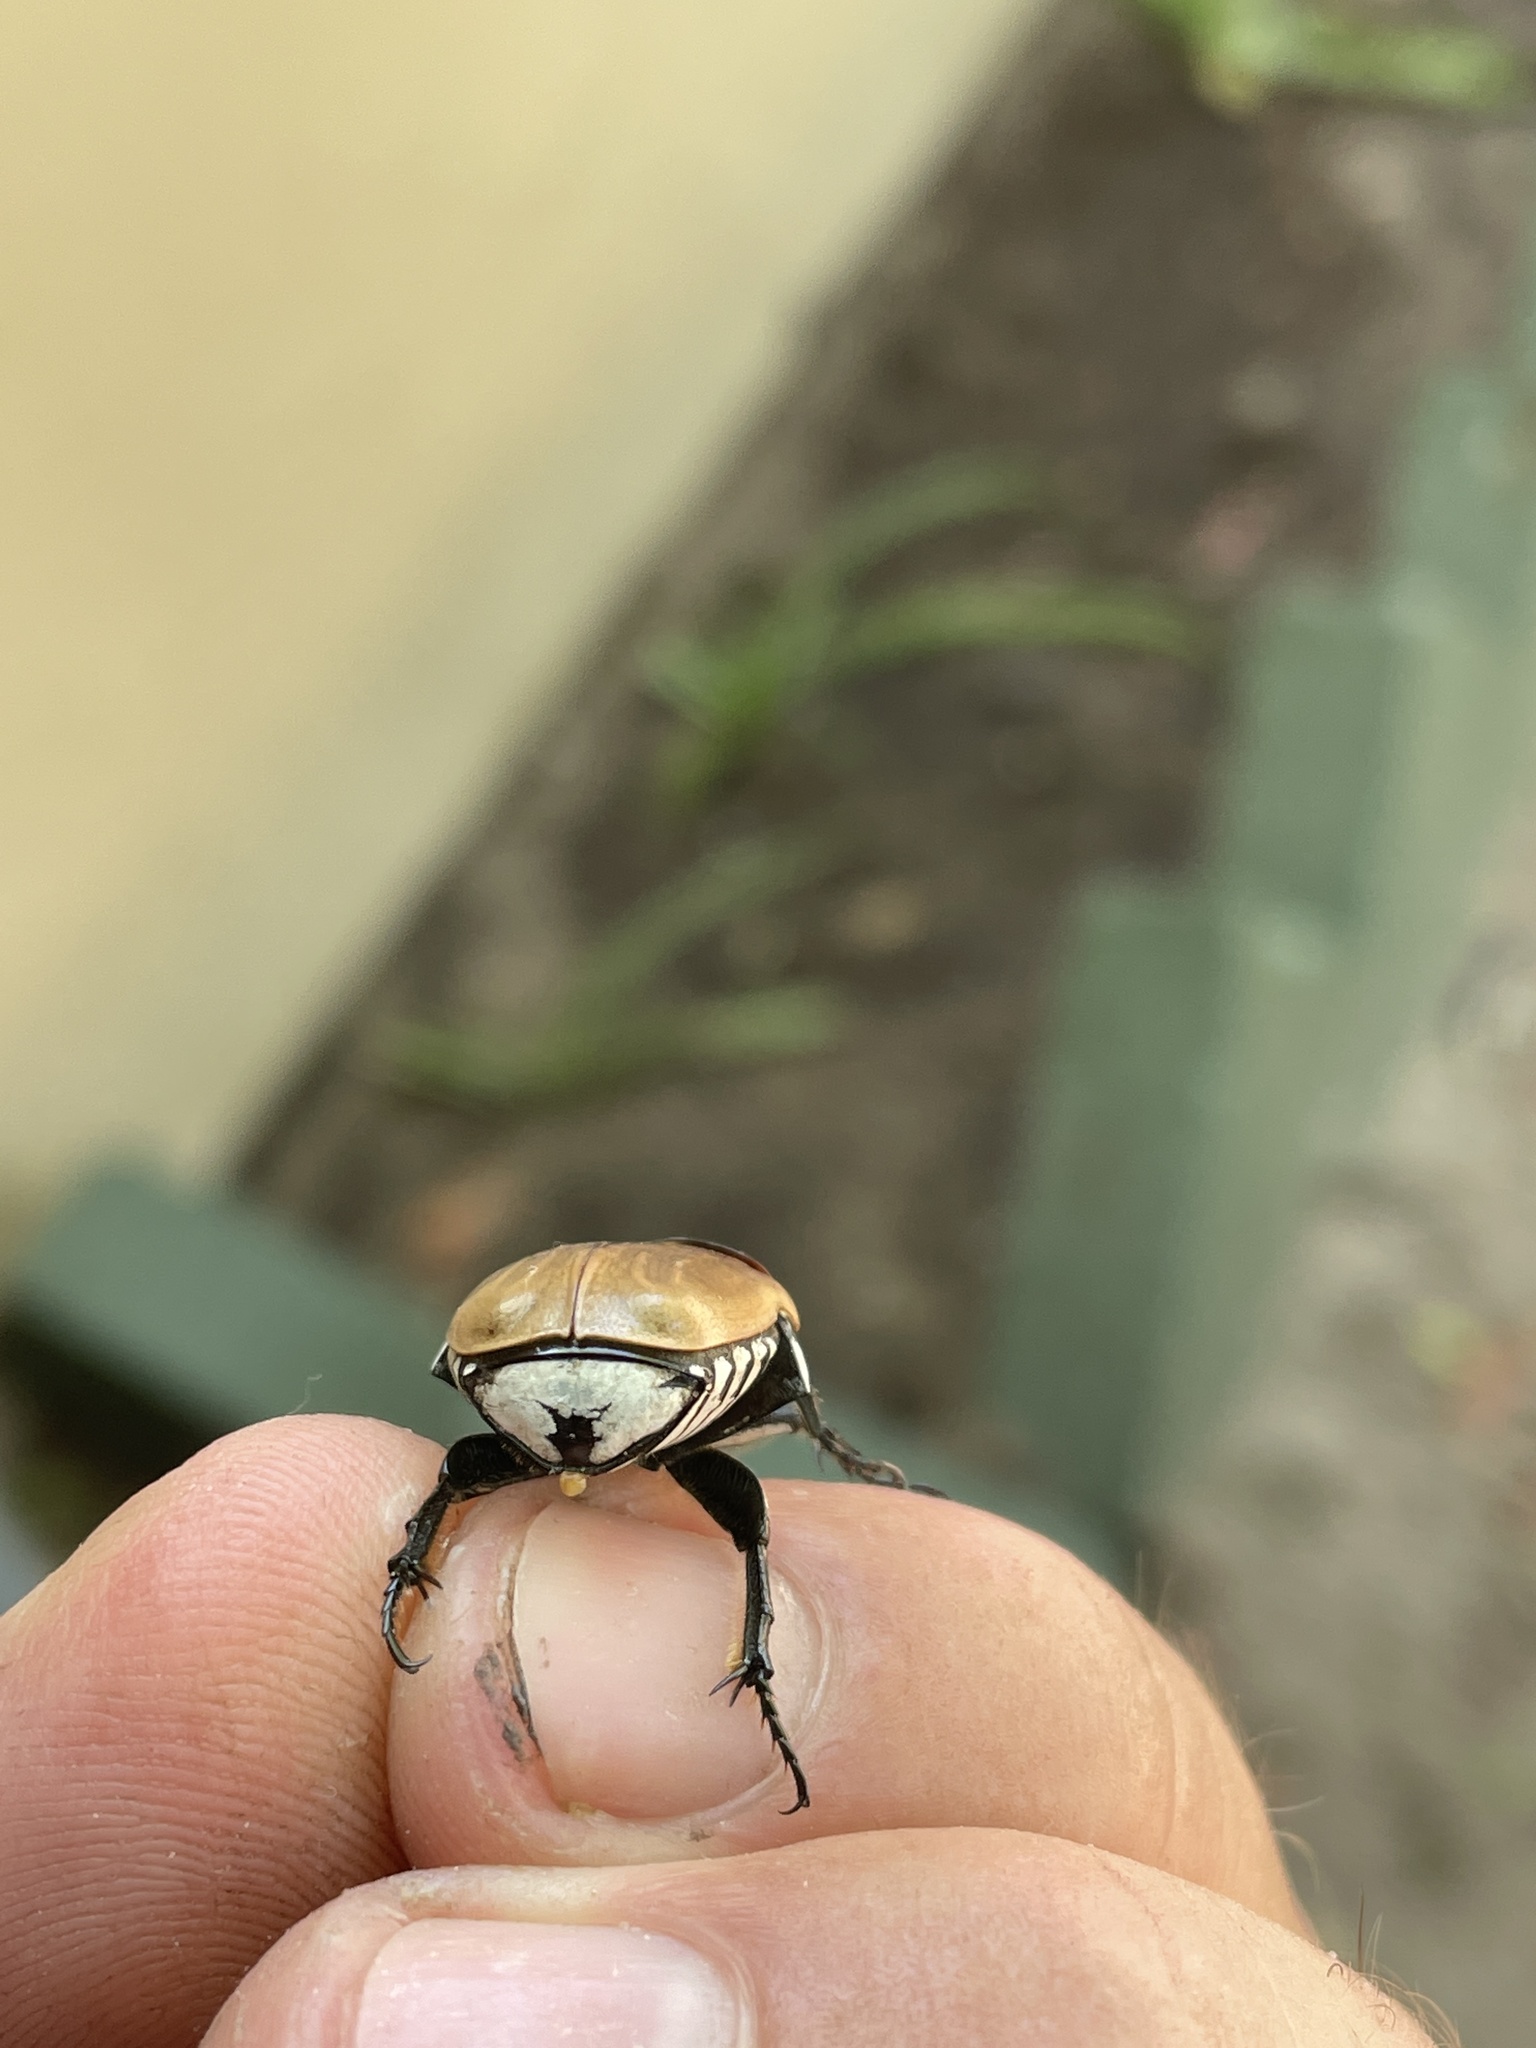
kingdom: Animalia
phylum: Arthropoda
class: Insecta
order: Coleoptera
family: Scarabaeidae
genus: Dischista
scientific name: Dischista rufa
